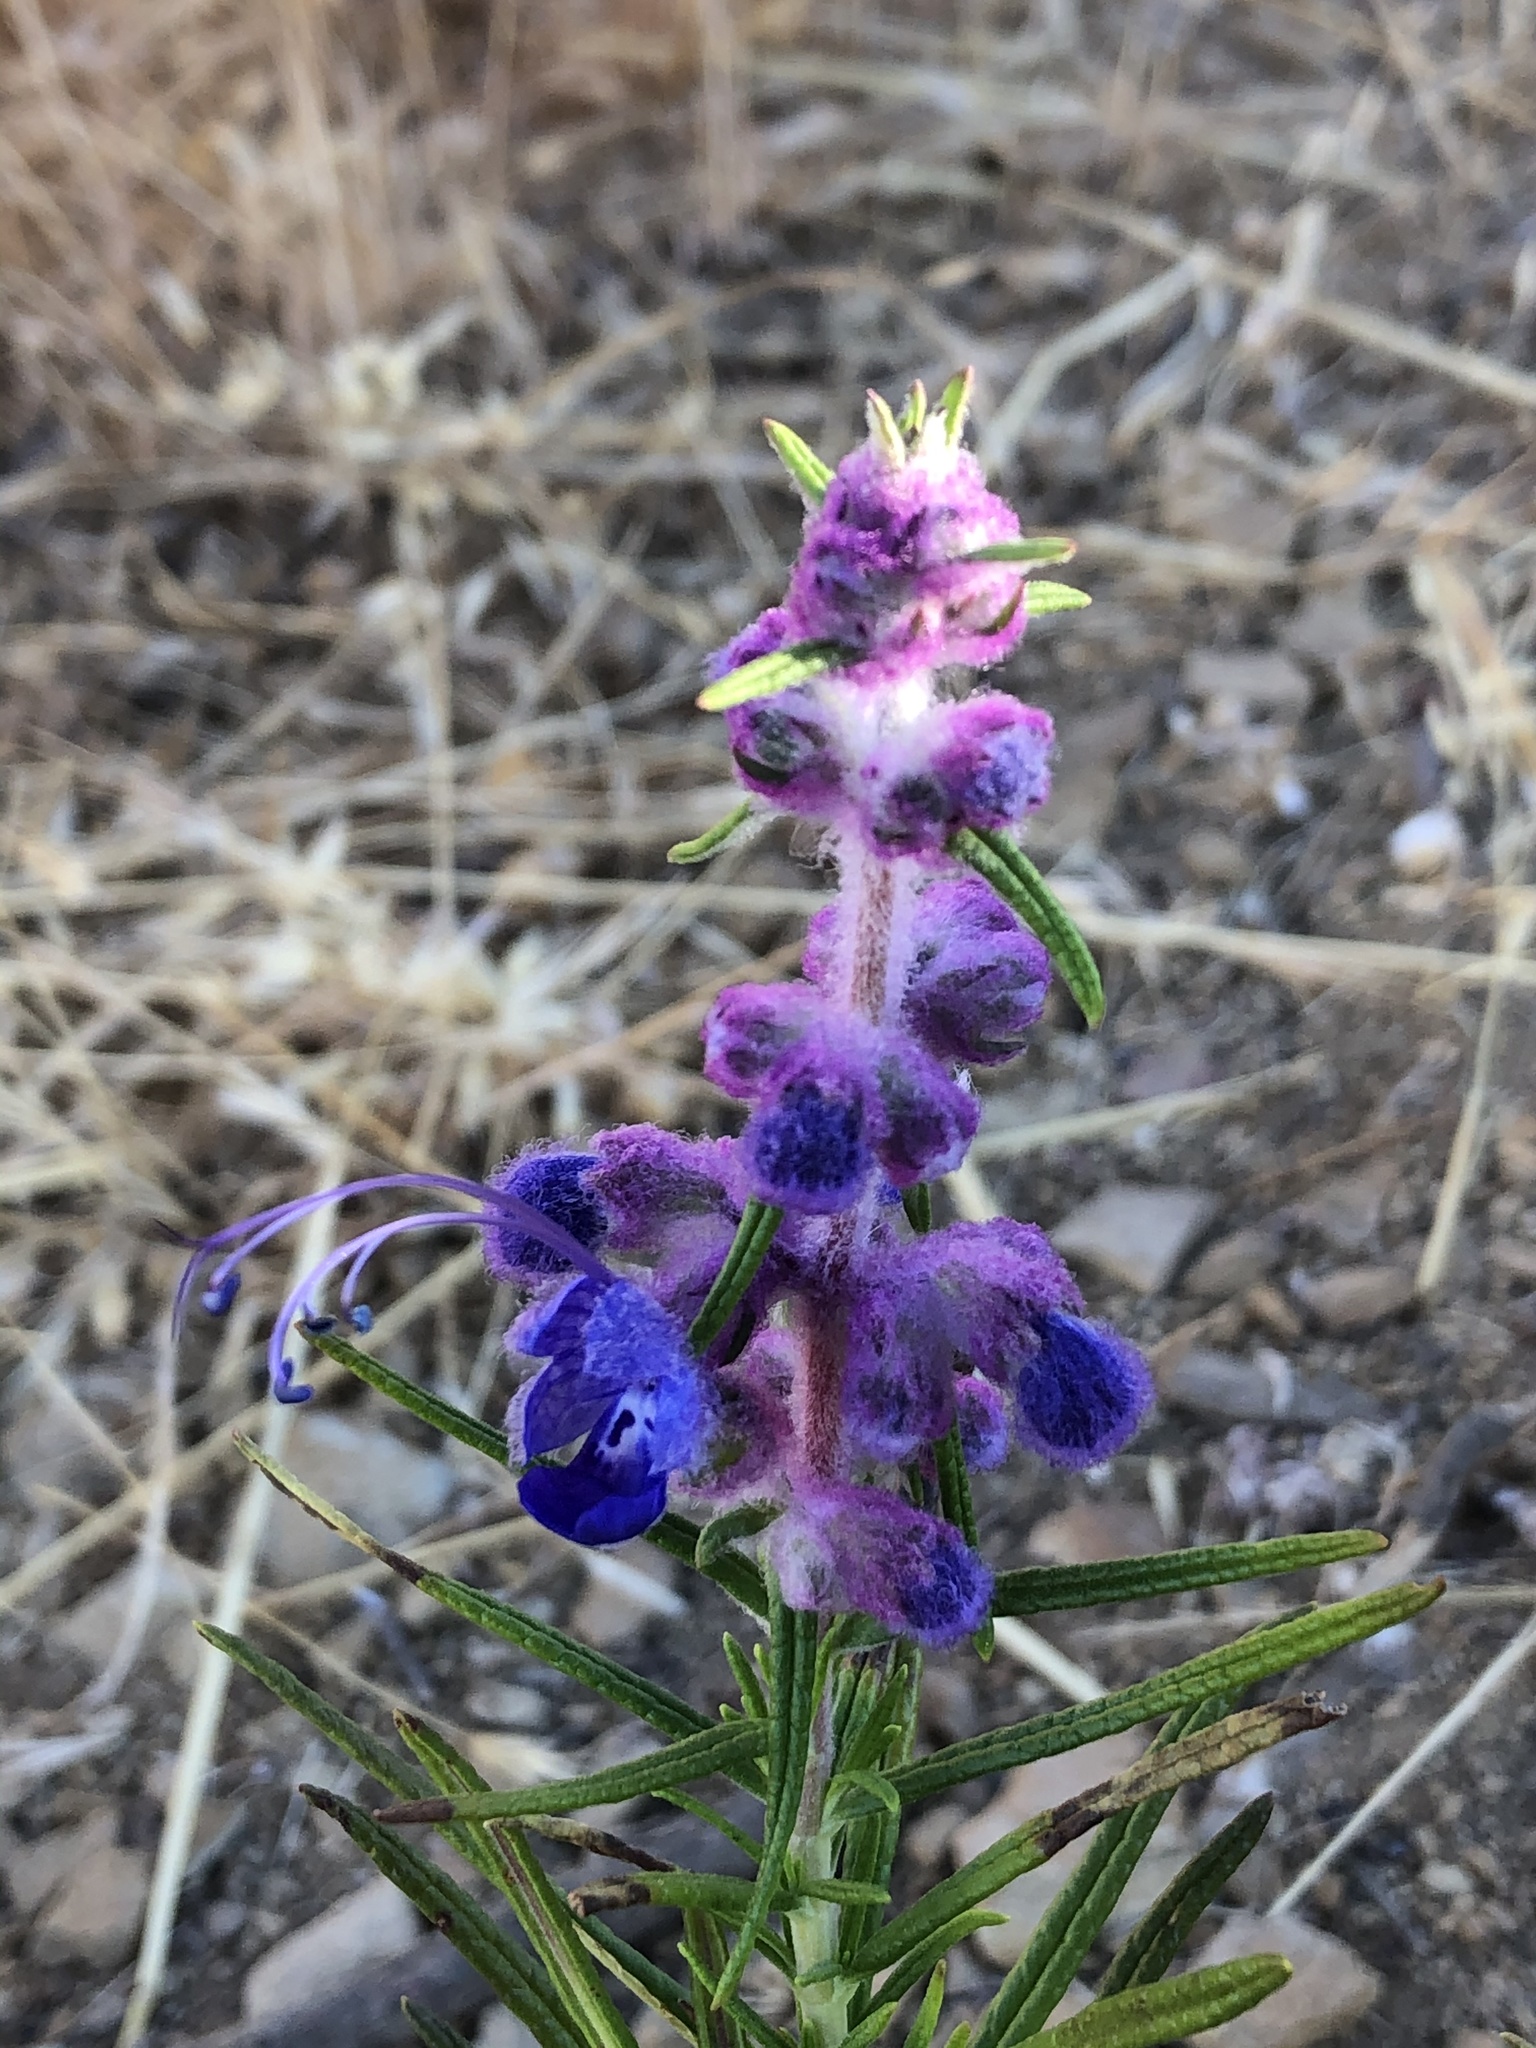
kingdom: Plantae
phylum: Tracheophyta
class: Magnoliopsida
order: Lamiales
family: Lamiaceae
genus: Trichostema
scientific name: Trichostema lanatum
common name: Woolly bluecurls
